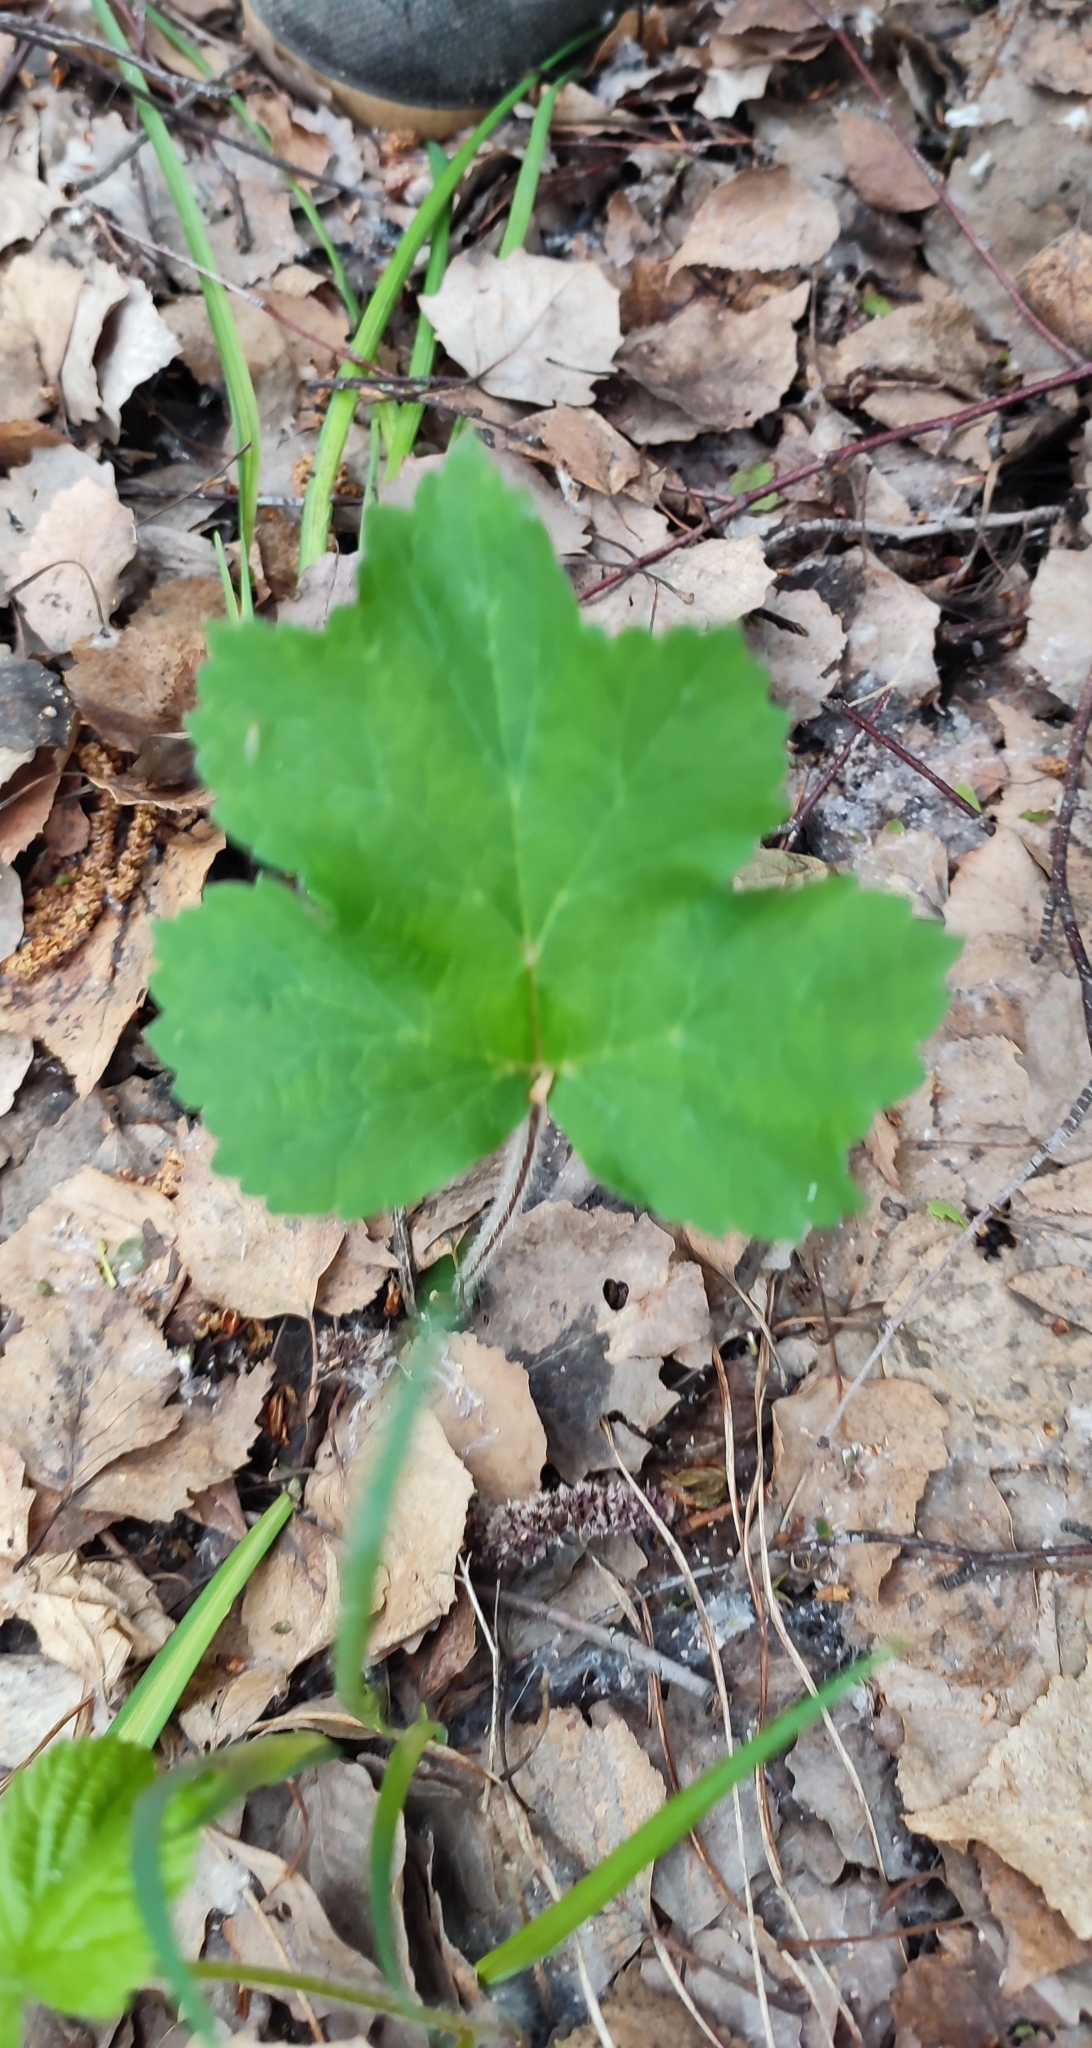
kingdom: Plantae
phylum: Tracheophyta
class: Magnoliopsida
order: Apiales
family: Apiaceae
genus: Heracleum
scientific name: Heracleum sphondylium
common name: Hogweed
